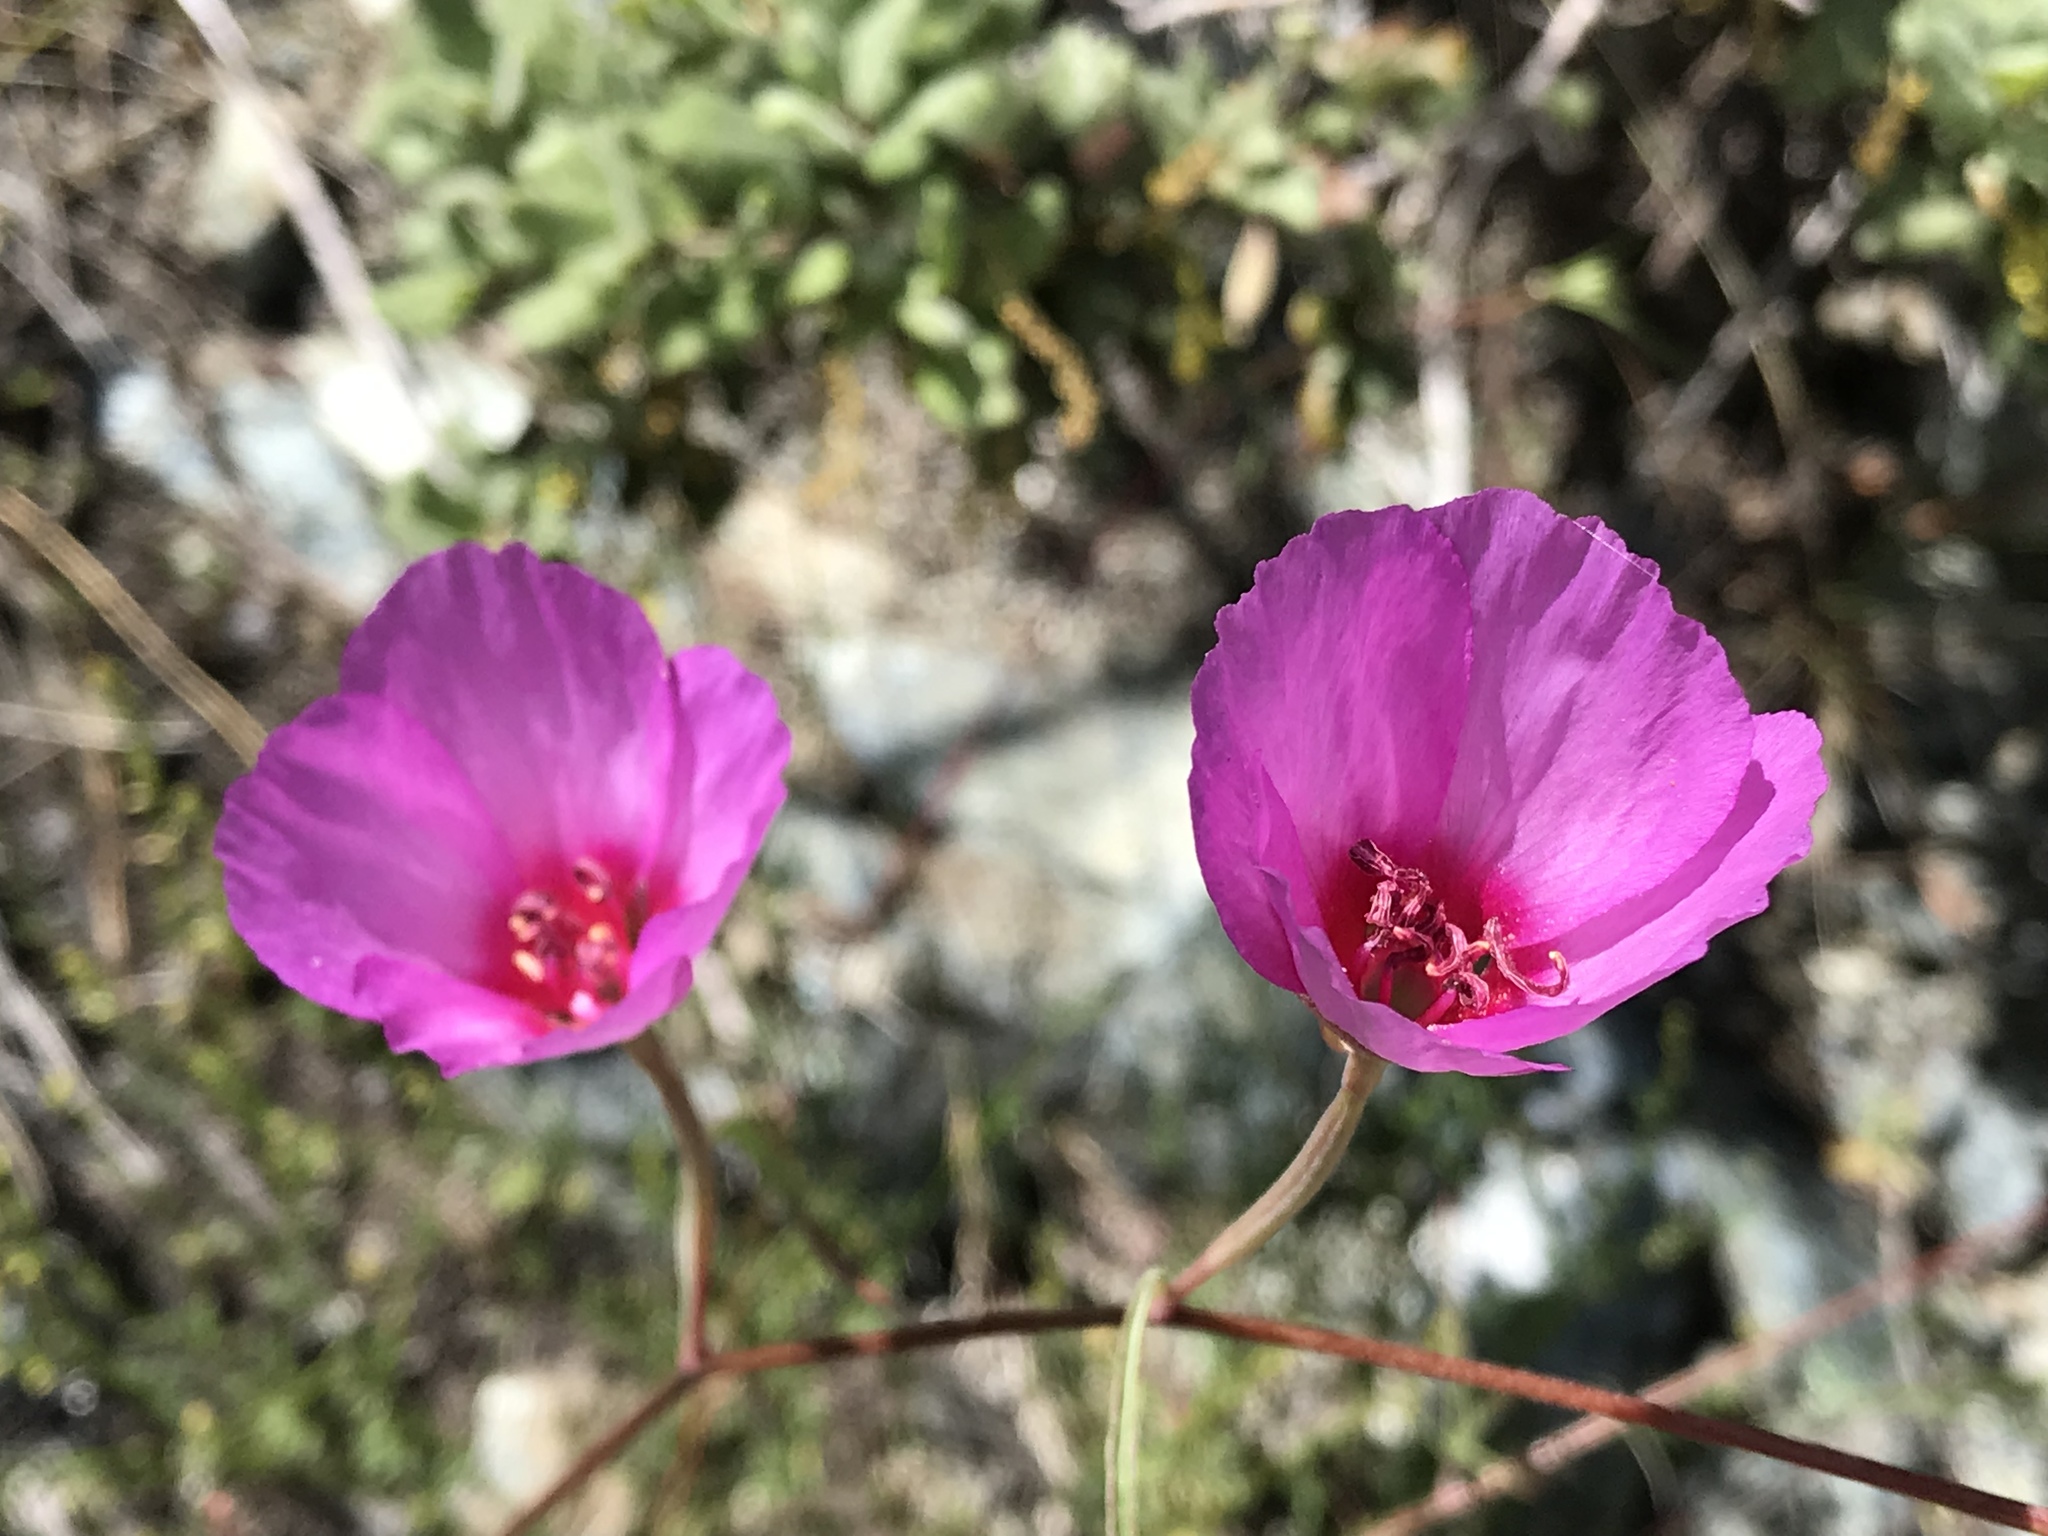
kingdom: Plantae
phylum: Tracheophyta
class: Magnoliopsida
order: Myrtales
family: Onagraceae
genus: Clarkia
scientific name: Clarkia rubicunda
